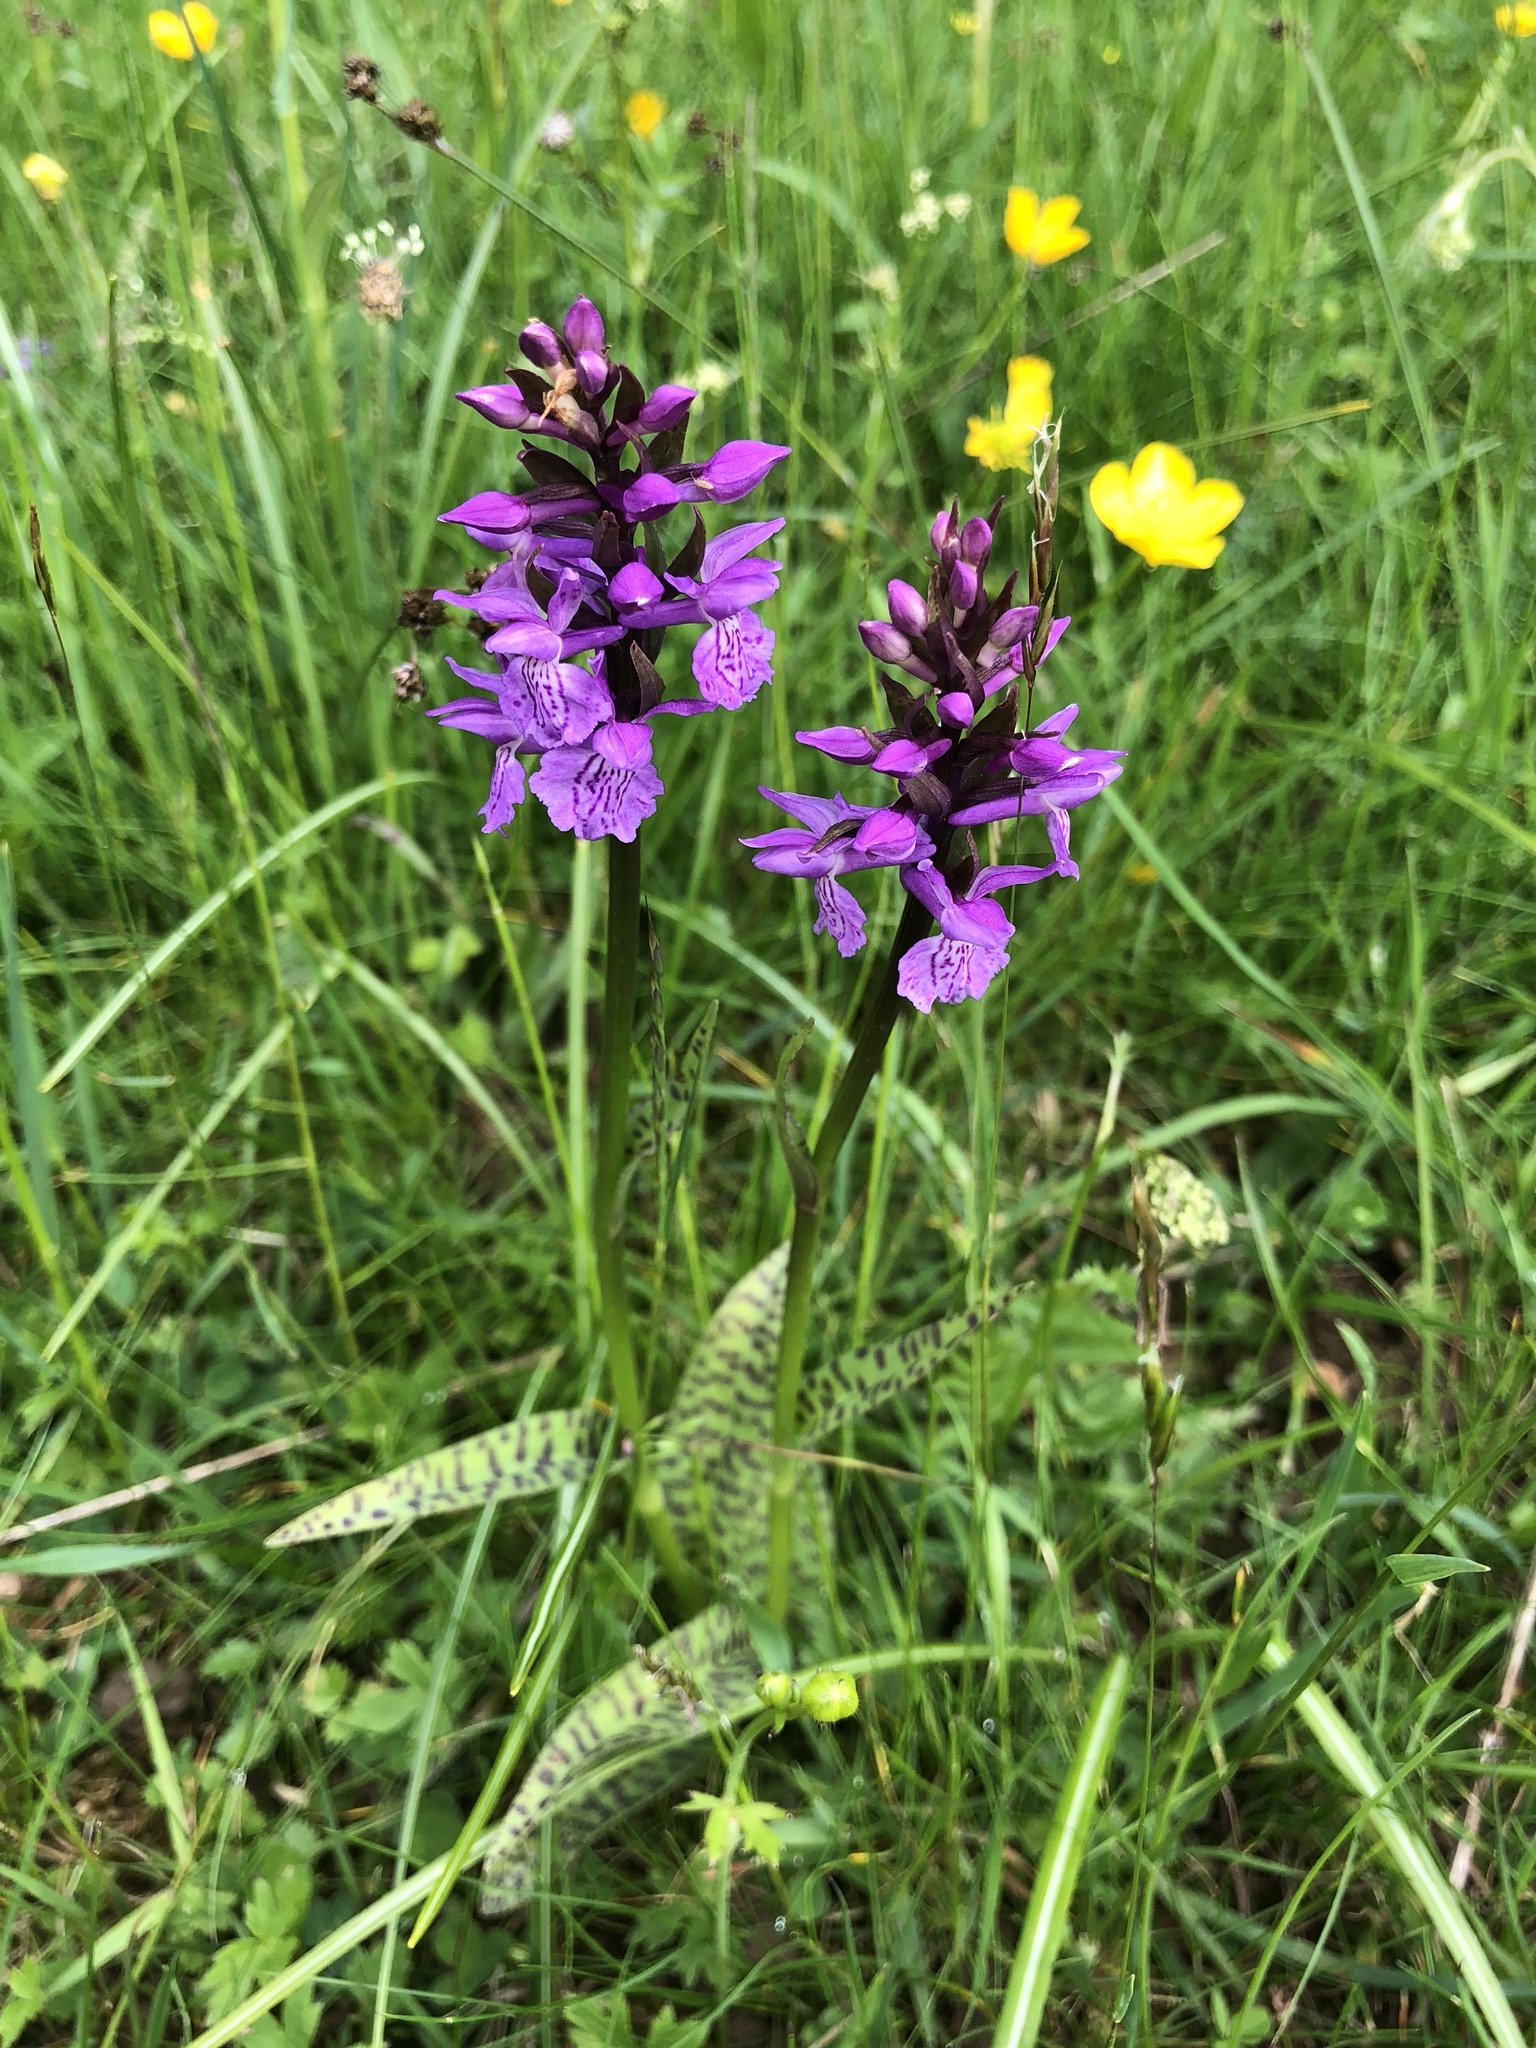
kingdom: Plantae
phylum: Tracheophyta
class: Liliopsida
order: Asparagales
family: Orchidaceae
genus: Dactylorhiza
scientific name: Dactylorhiza majalis
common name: Marsh orchid
